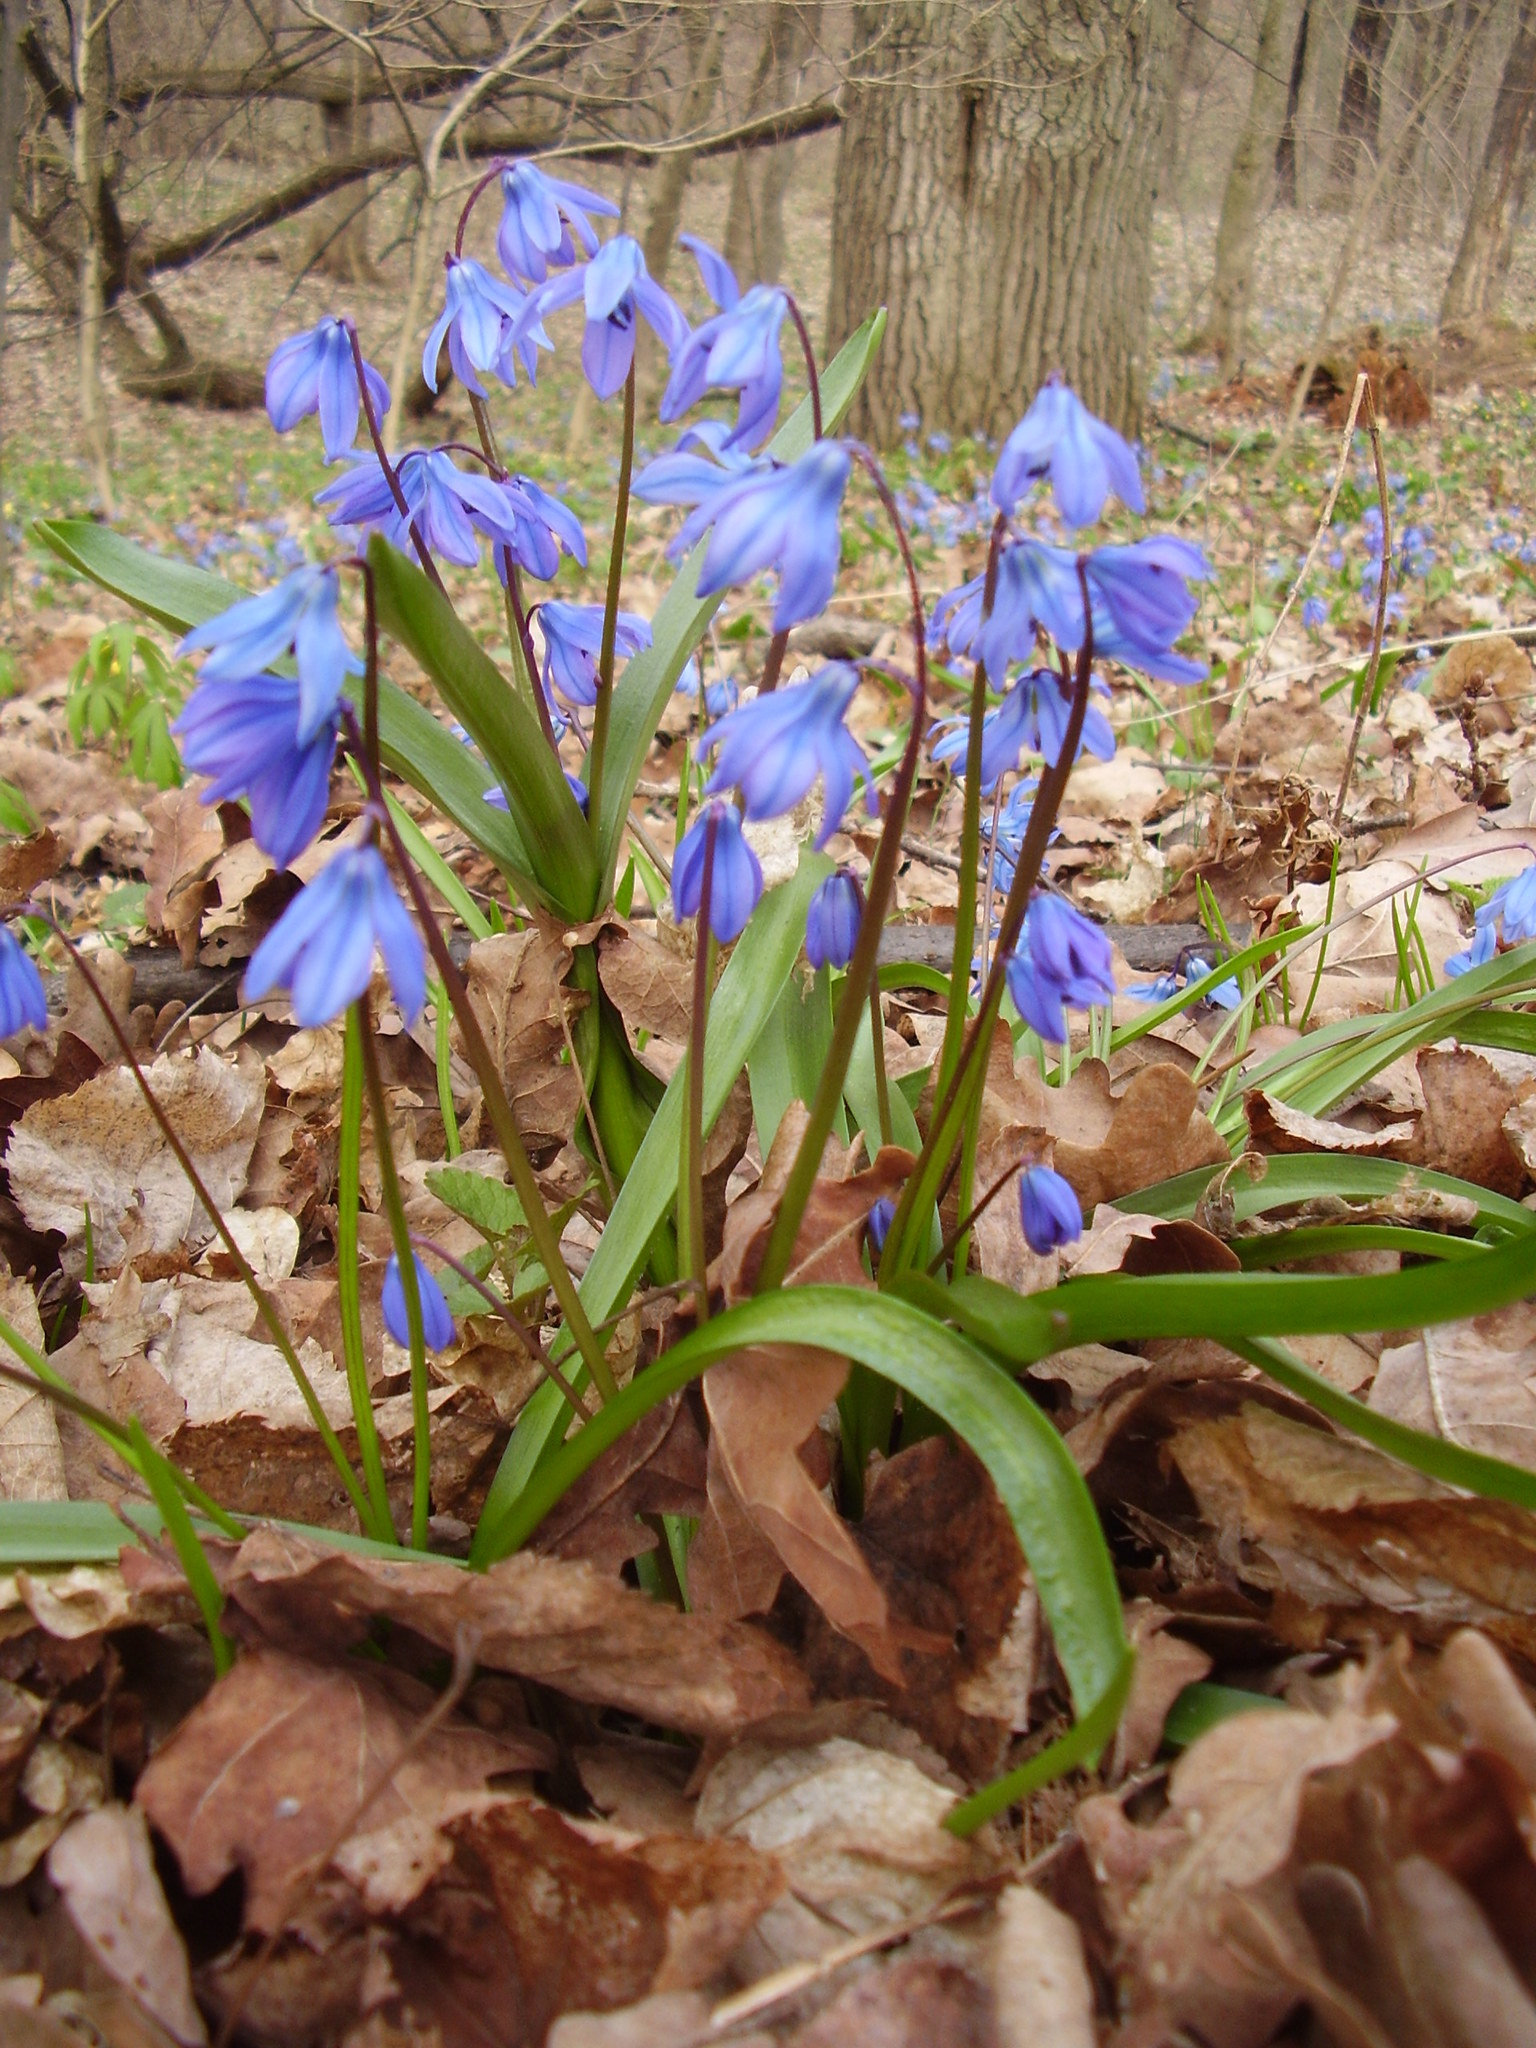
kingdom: Plantae
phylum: Tracheophyta
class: Liliopsida
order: Asparagales
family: Asparagaceae
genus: Scilla
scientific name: Scilla siberica
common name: Siberian squill
